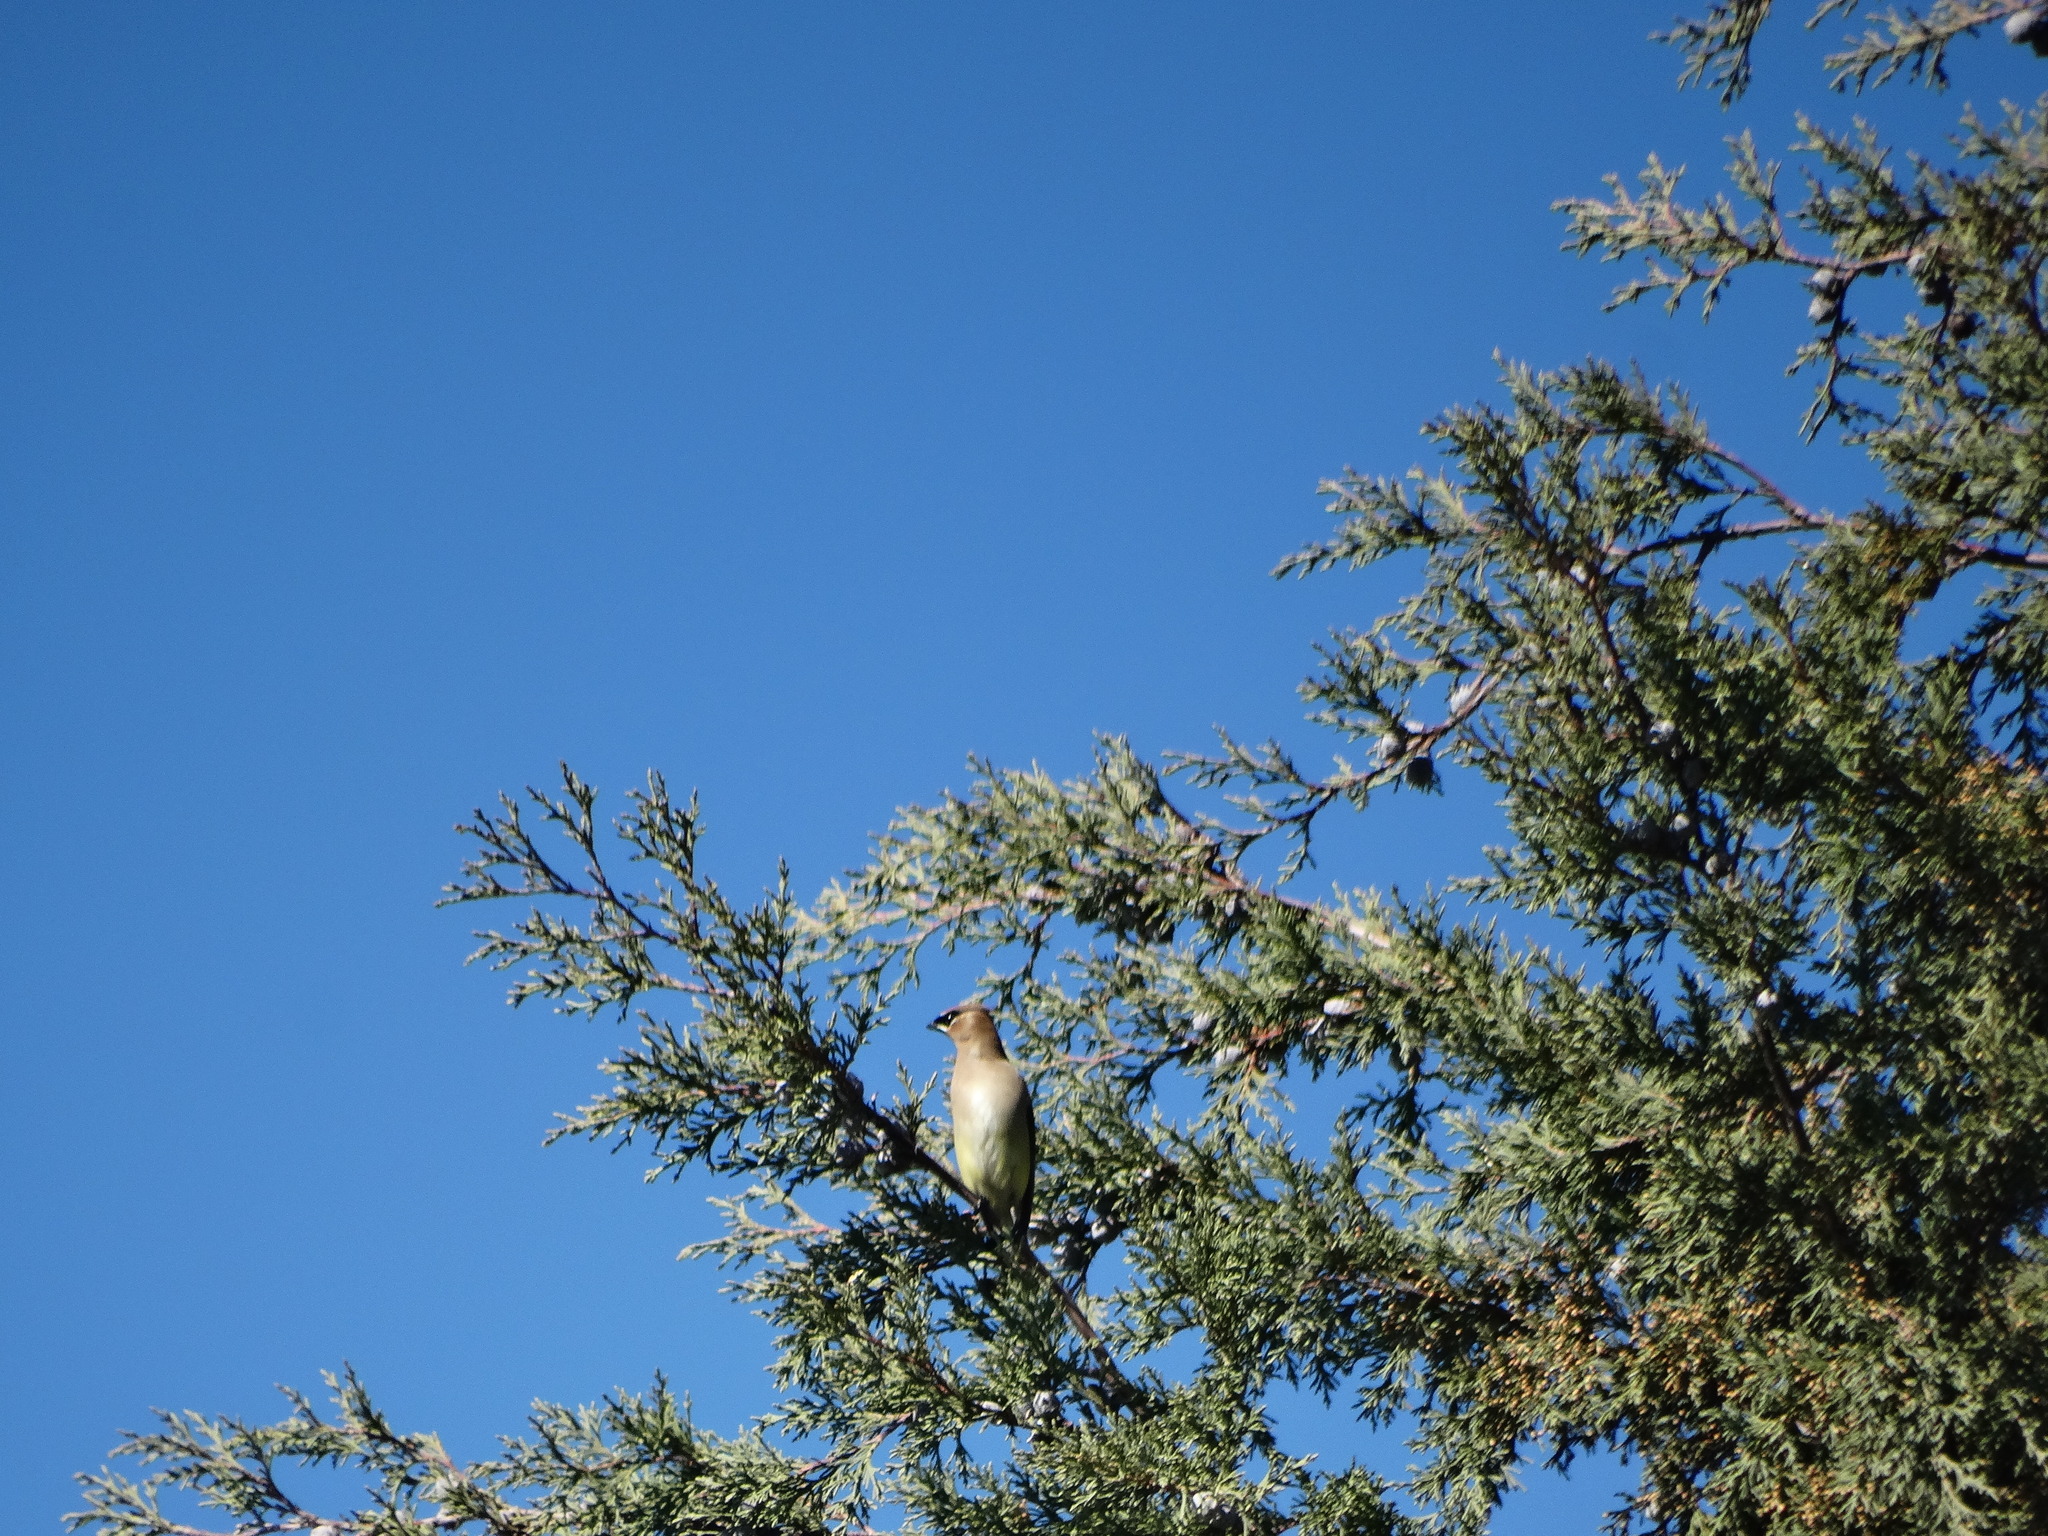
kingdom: Animalia
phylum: Chordata
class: Aves
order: Passeriformes
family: Bombycillidae
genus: Bombycilla
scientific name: Bombycilla cedrorum
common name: Cedar waxwing
